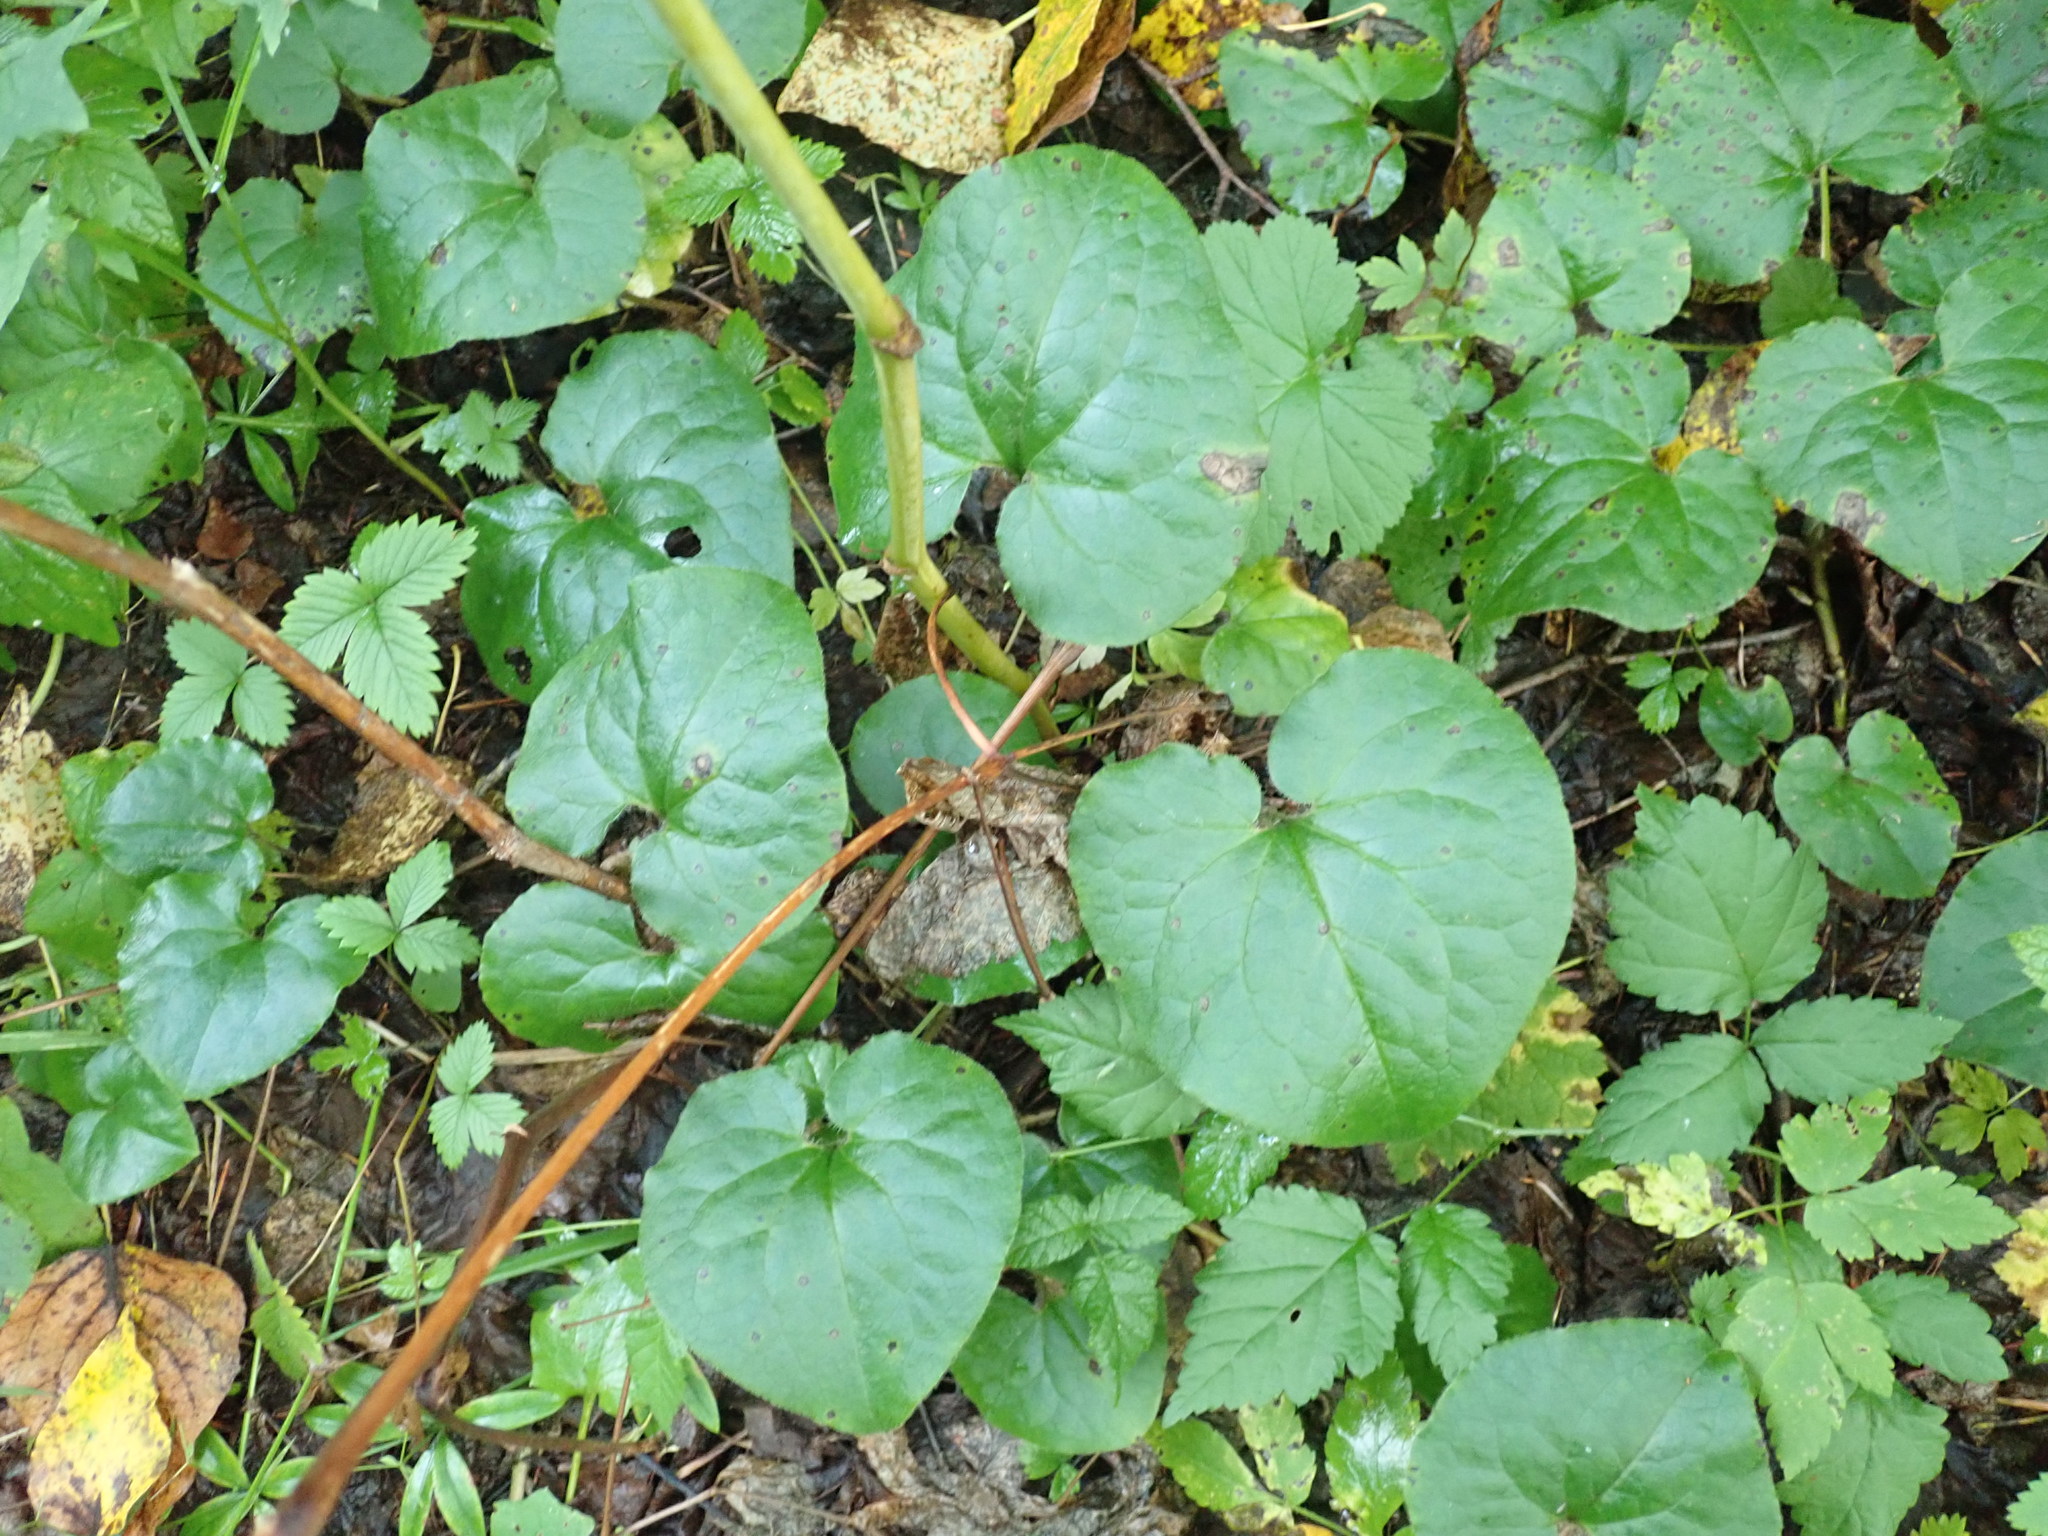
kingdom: Plantae
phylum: Tracheophyta
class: Magnoliopsida
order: Piperales
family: Aristolochiaceae
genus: Asarum
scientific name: Asarum caudatum
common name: Wild ginger
